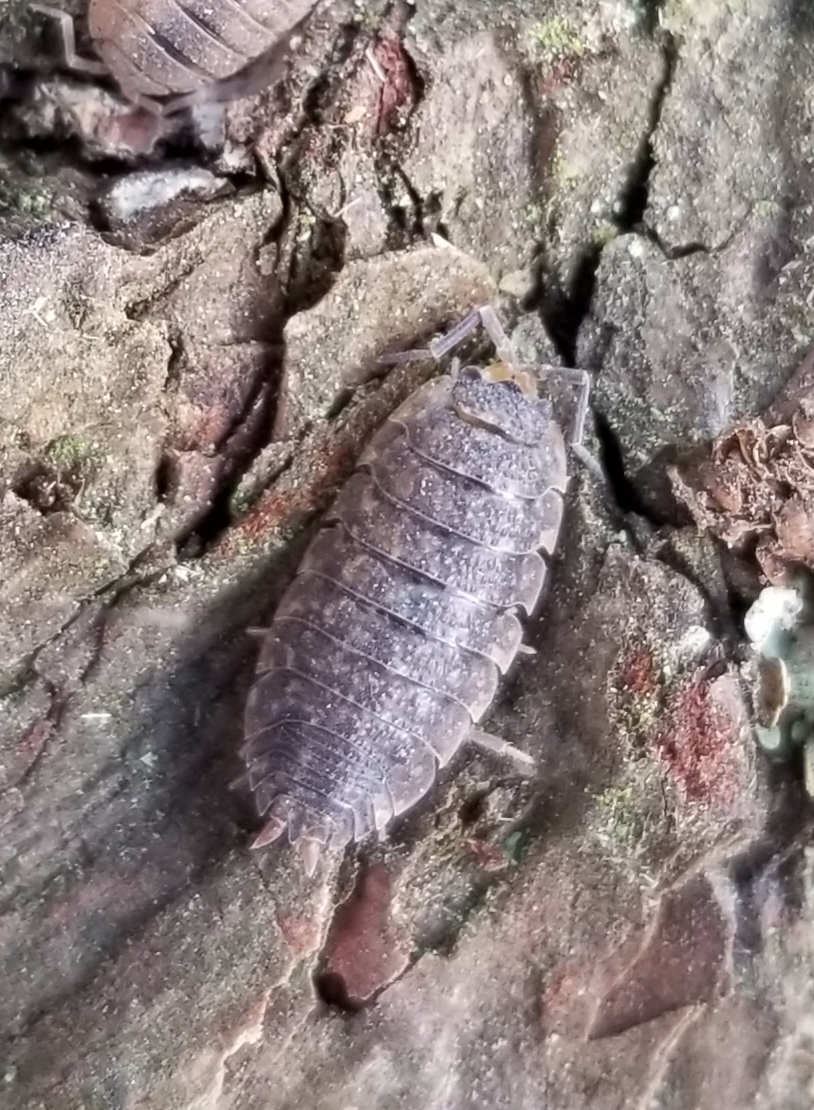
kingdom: Animalia
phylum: Arthropoda
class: Malacostraca
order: Isopoda
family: Porcellionidae
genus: Porcellio
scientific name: Porcellio scaber
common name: Common rough woodlouse
